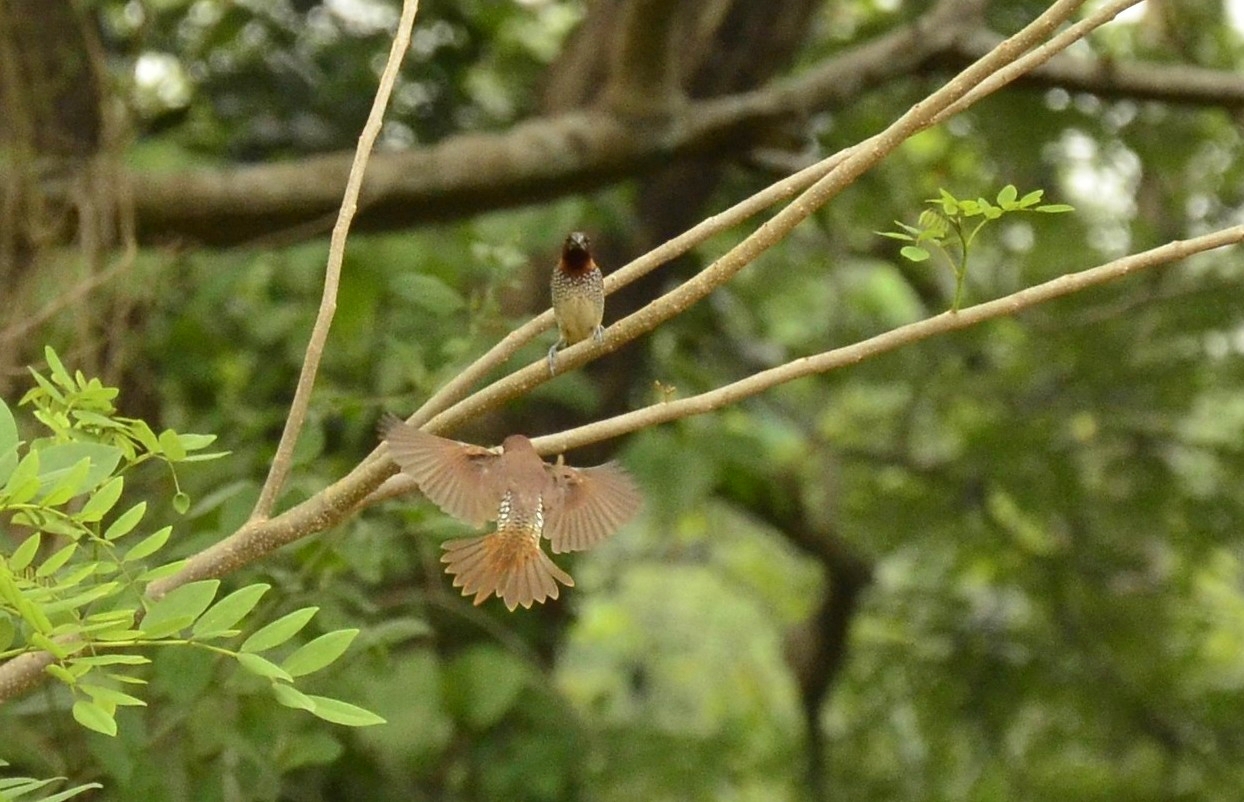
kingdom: Animalia
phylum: Chordata
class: Aves
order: Passeriformes
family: Estrildidae
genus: Lonchura
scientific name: Lonchura punctulata
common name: Scaly-breasted munia
